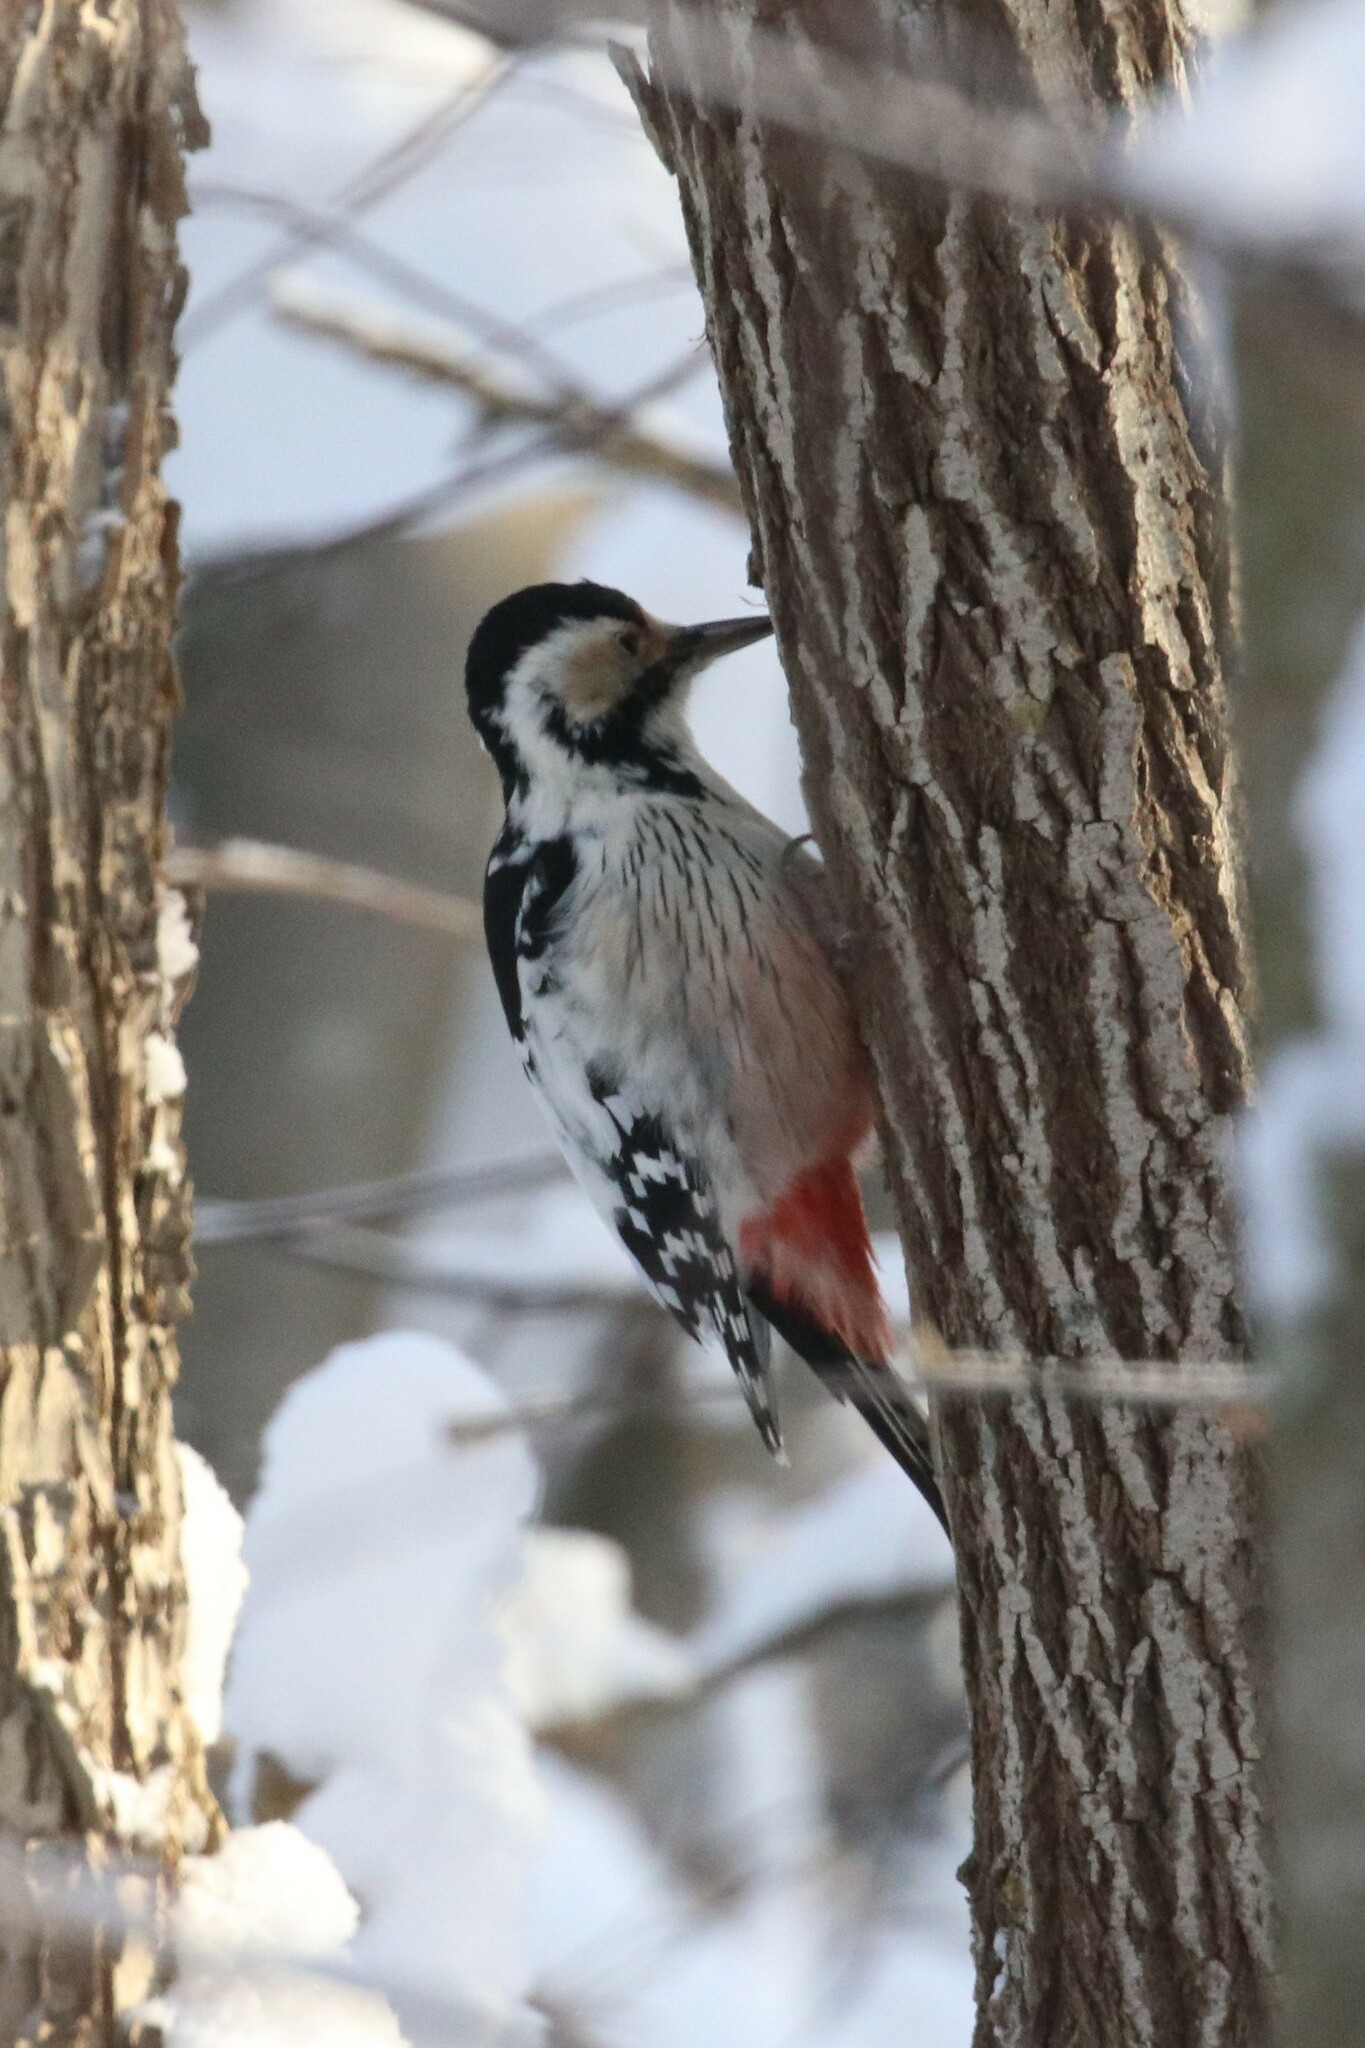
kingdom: Animalia
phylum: Chordata
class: Aves
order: Piciformes
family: Picidae
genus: Dendrocopos
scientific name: Dendrocopos leucotos
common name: White-backed woodpecker
